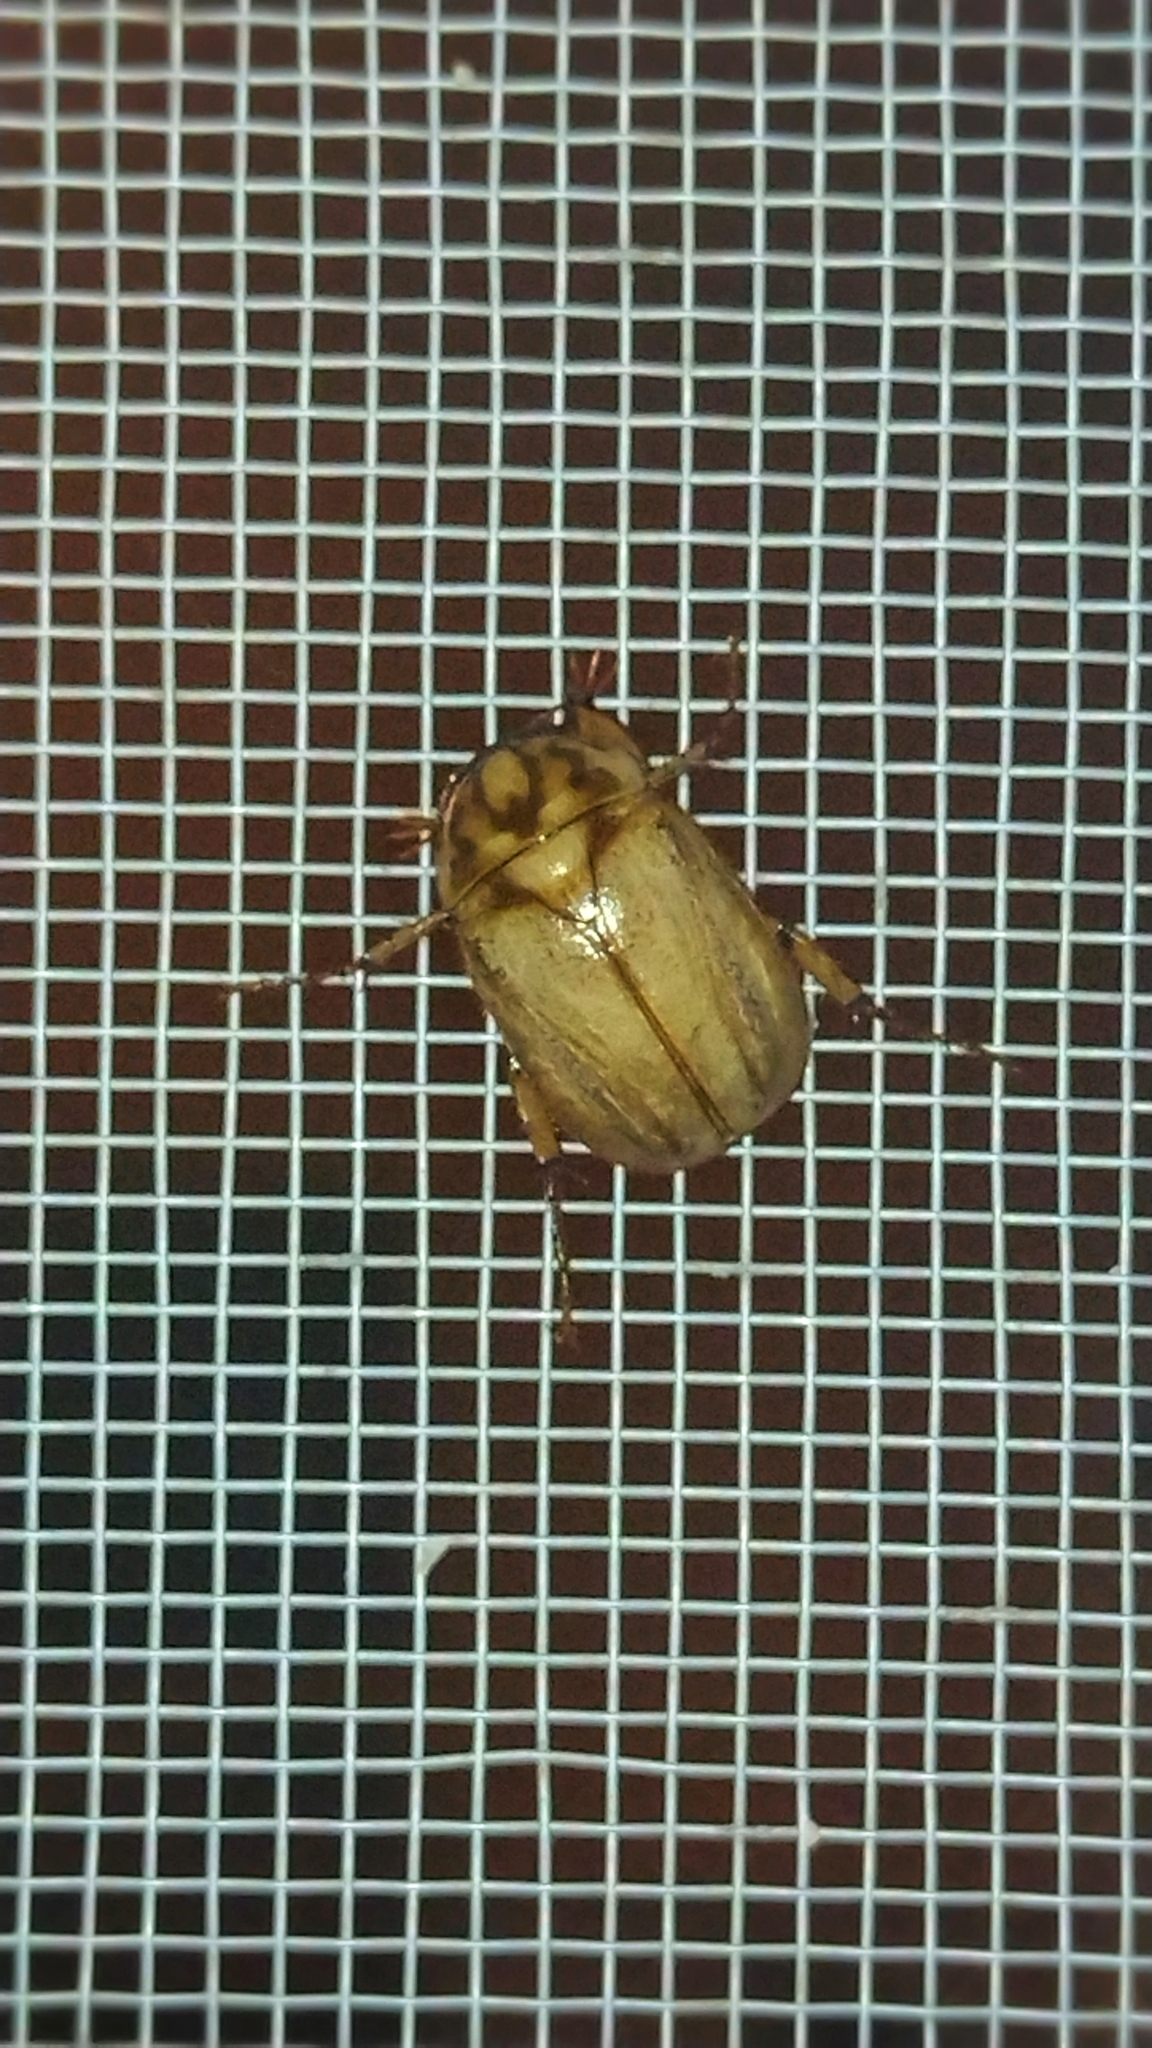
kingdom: Animalia
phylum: Arthropoda
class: Insecta
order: Coleoptera
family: Scarabaeidae
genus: Cyclocephala
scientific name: Cyclocephala signaticollis
